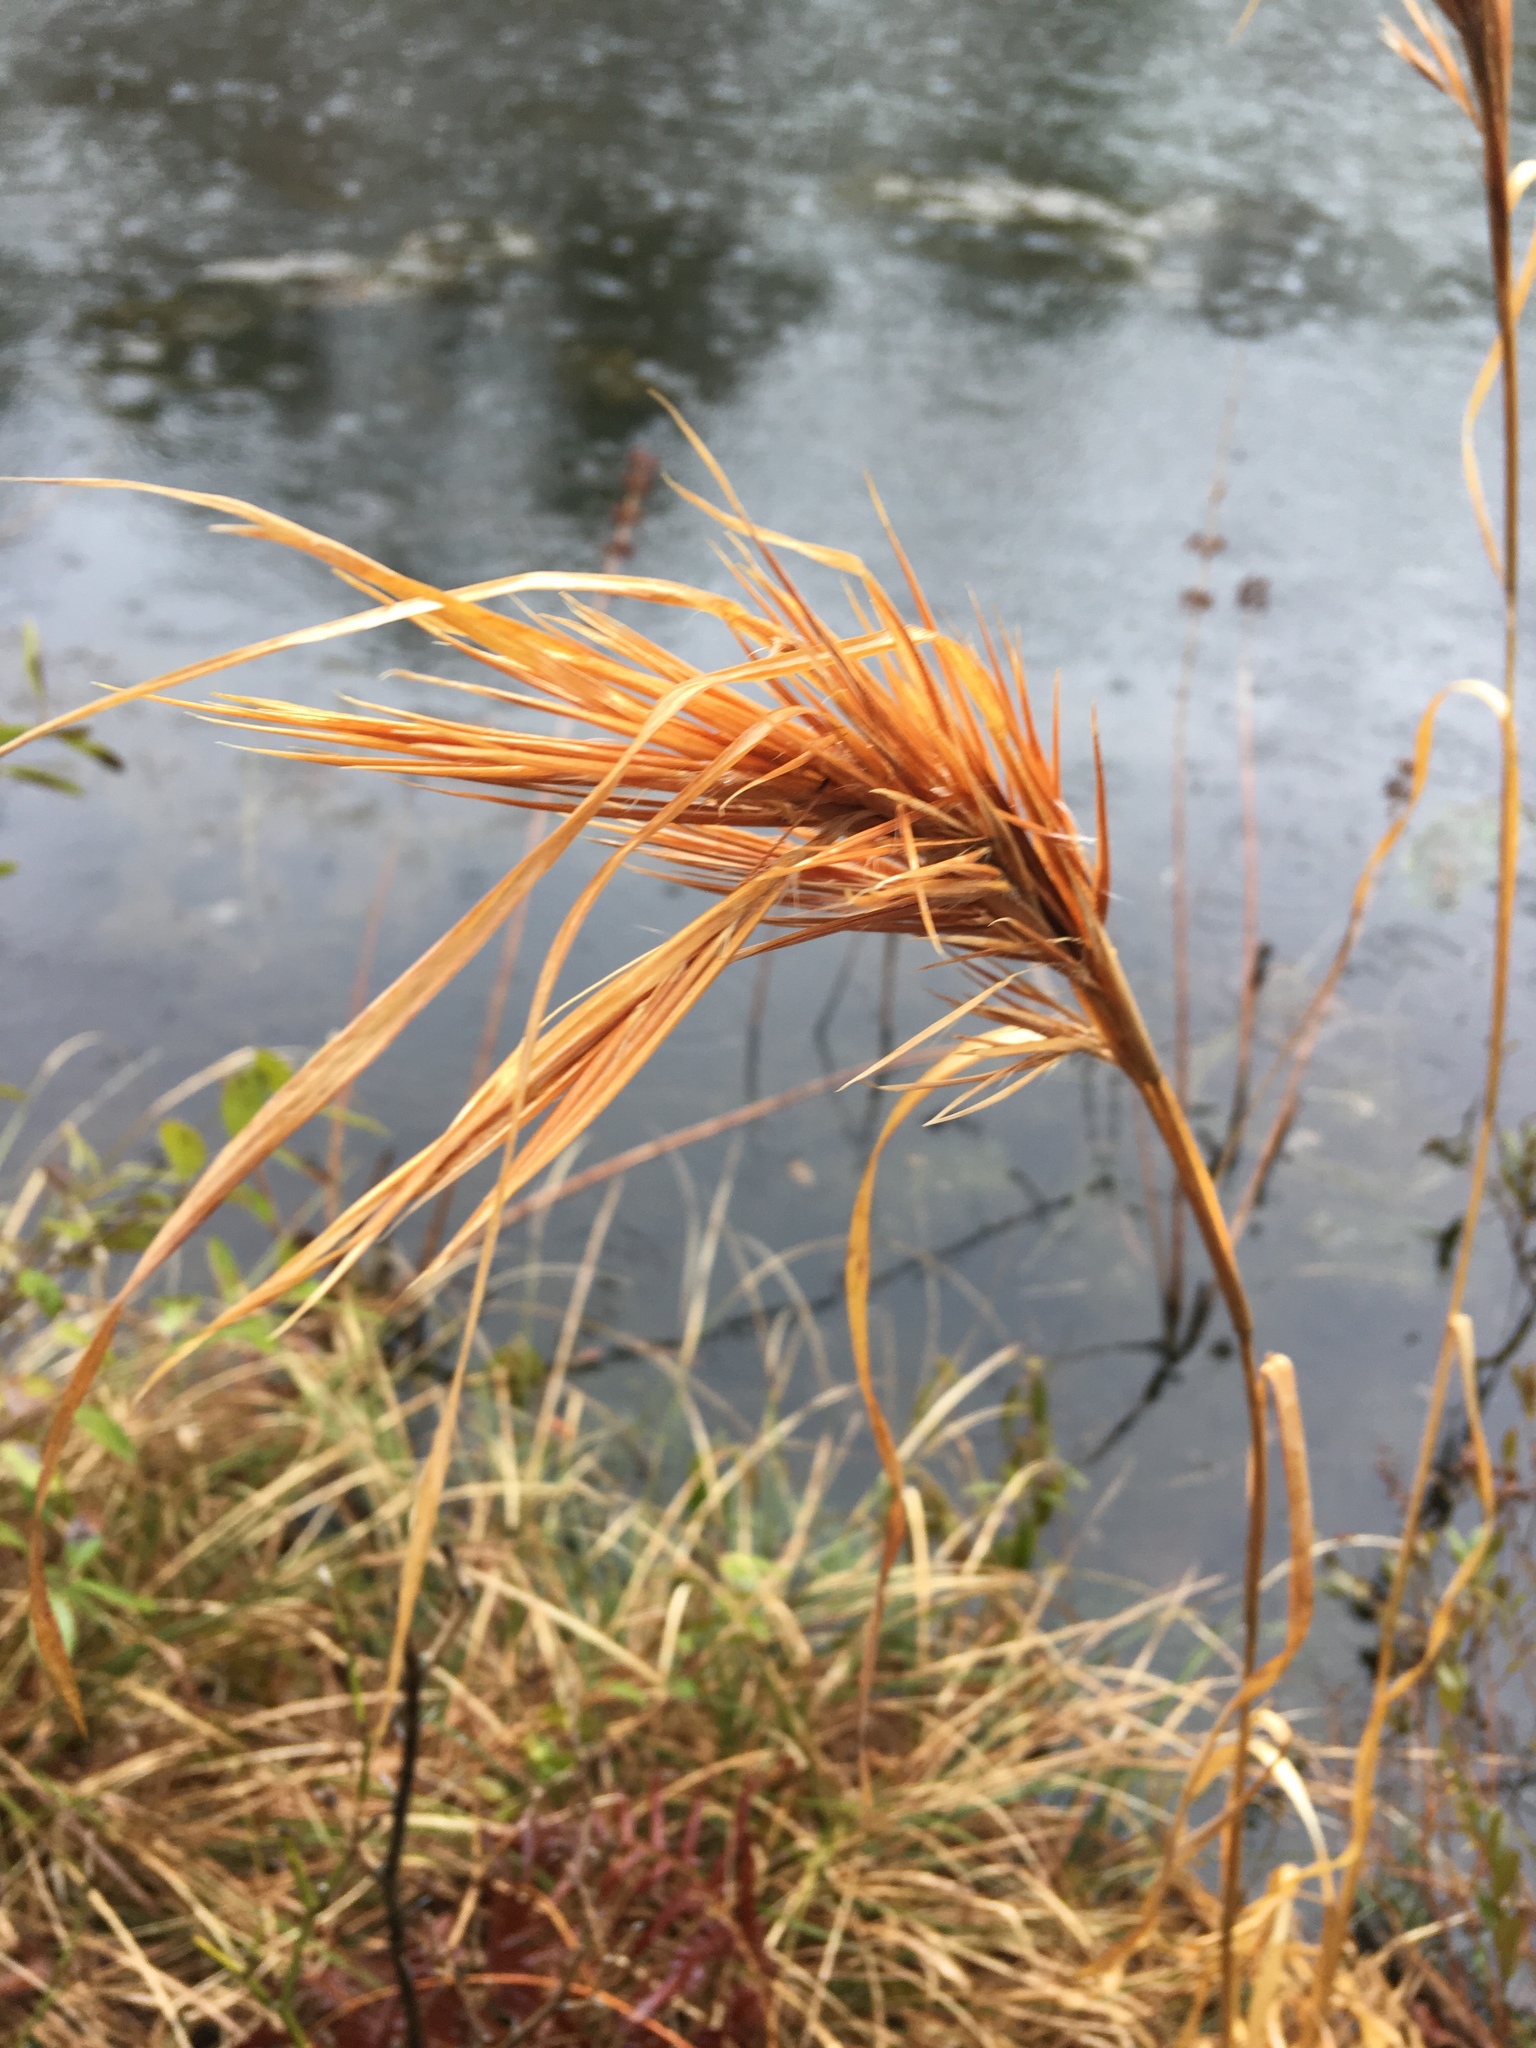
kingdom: Plantae
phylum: Tracheophyta
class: Liliopsida
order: Poales
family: Poaceae
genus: Andropogon
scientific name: Andropogon glomeratus
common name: Bushy beard grass
